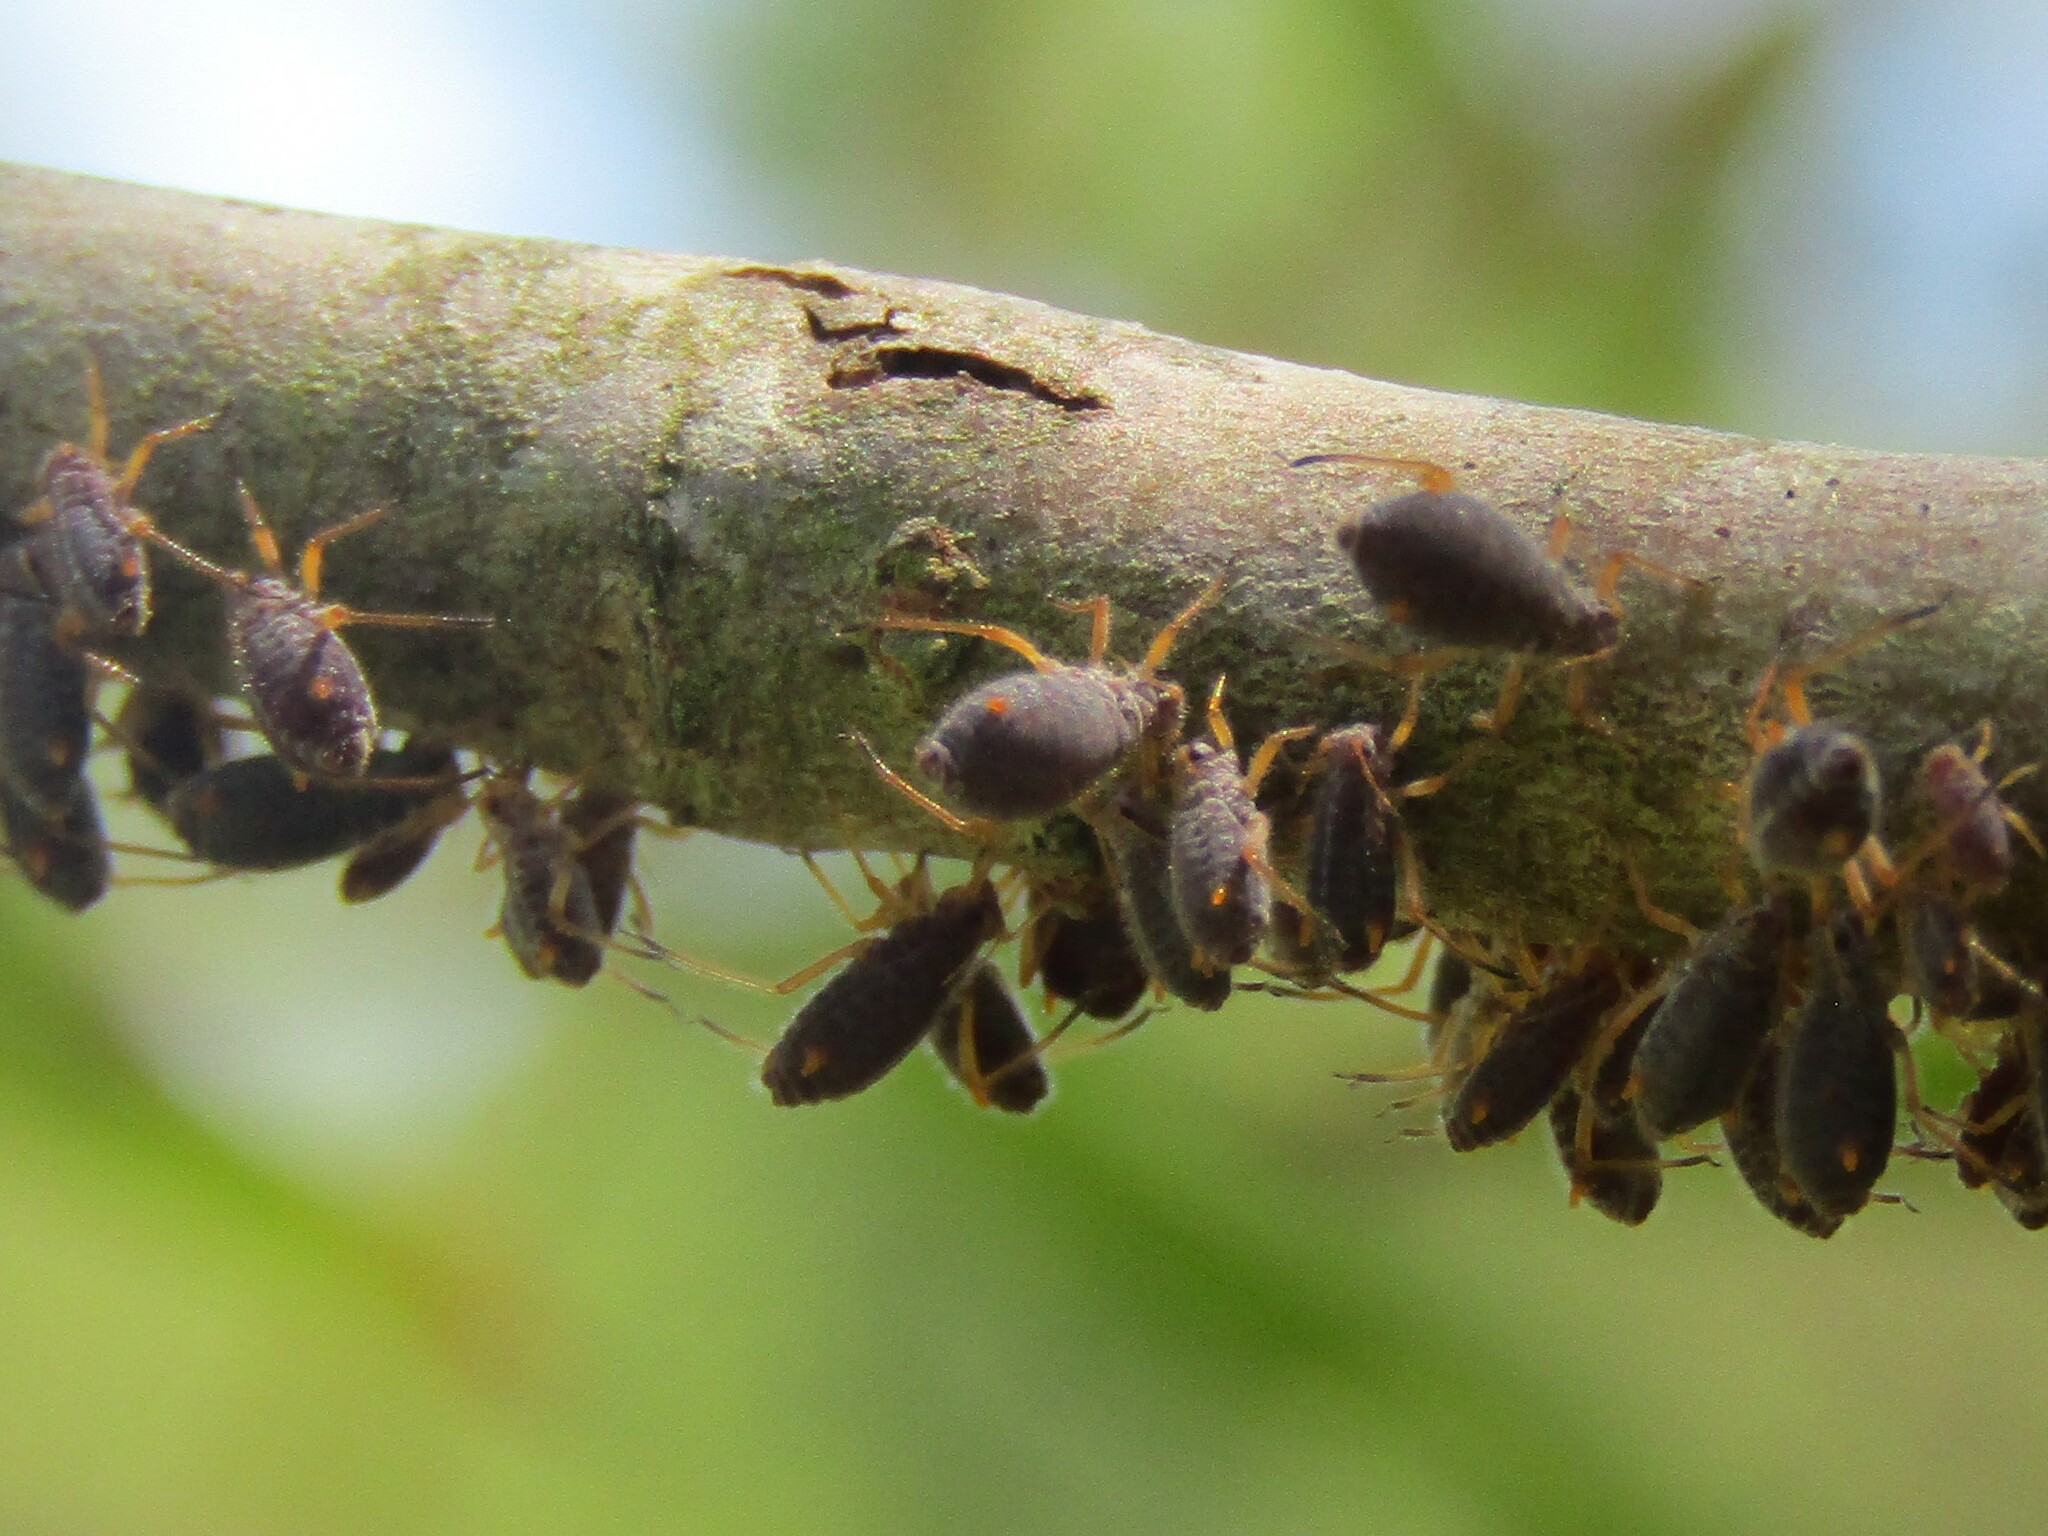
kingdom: Animalia
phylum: Arthropoda
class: Insecta
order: Hemiptera
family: Aphididae
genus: Pterocomma
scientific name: Pterocomma smithiae
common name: Black willow aphid
